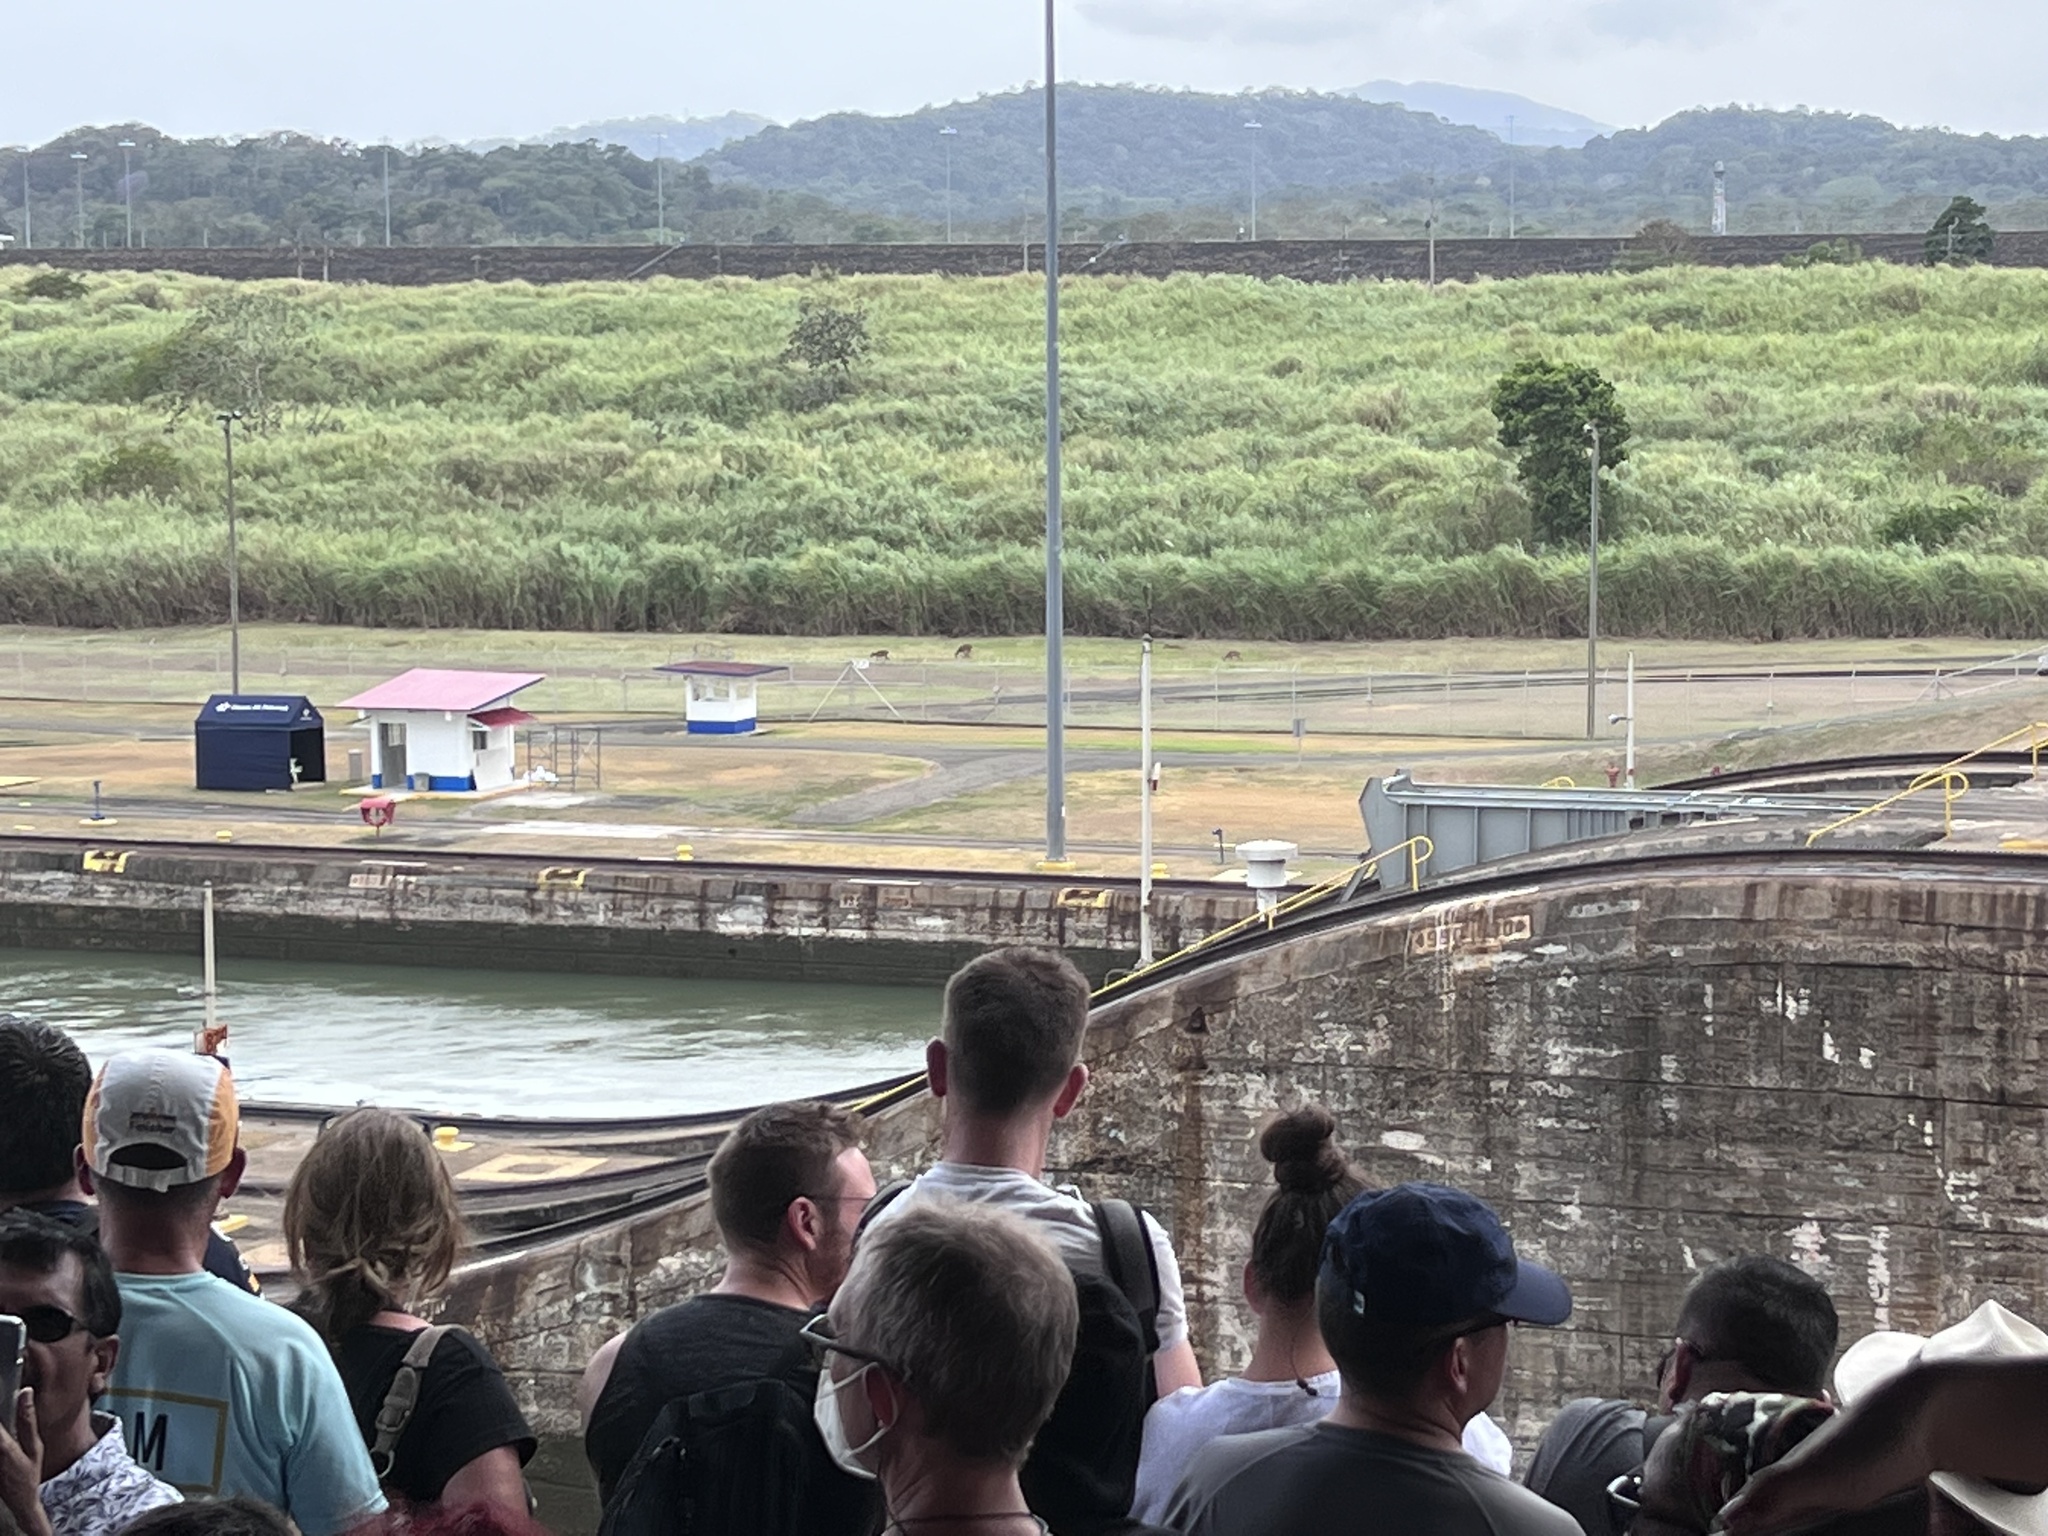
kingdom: Animalia
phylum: Chordata
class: Mammalia
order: Artiodactyla
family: Cervidae
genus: Odocoileus
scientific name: Odocoileus virginianus
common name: White-tailed deer
